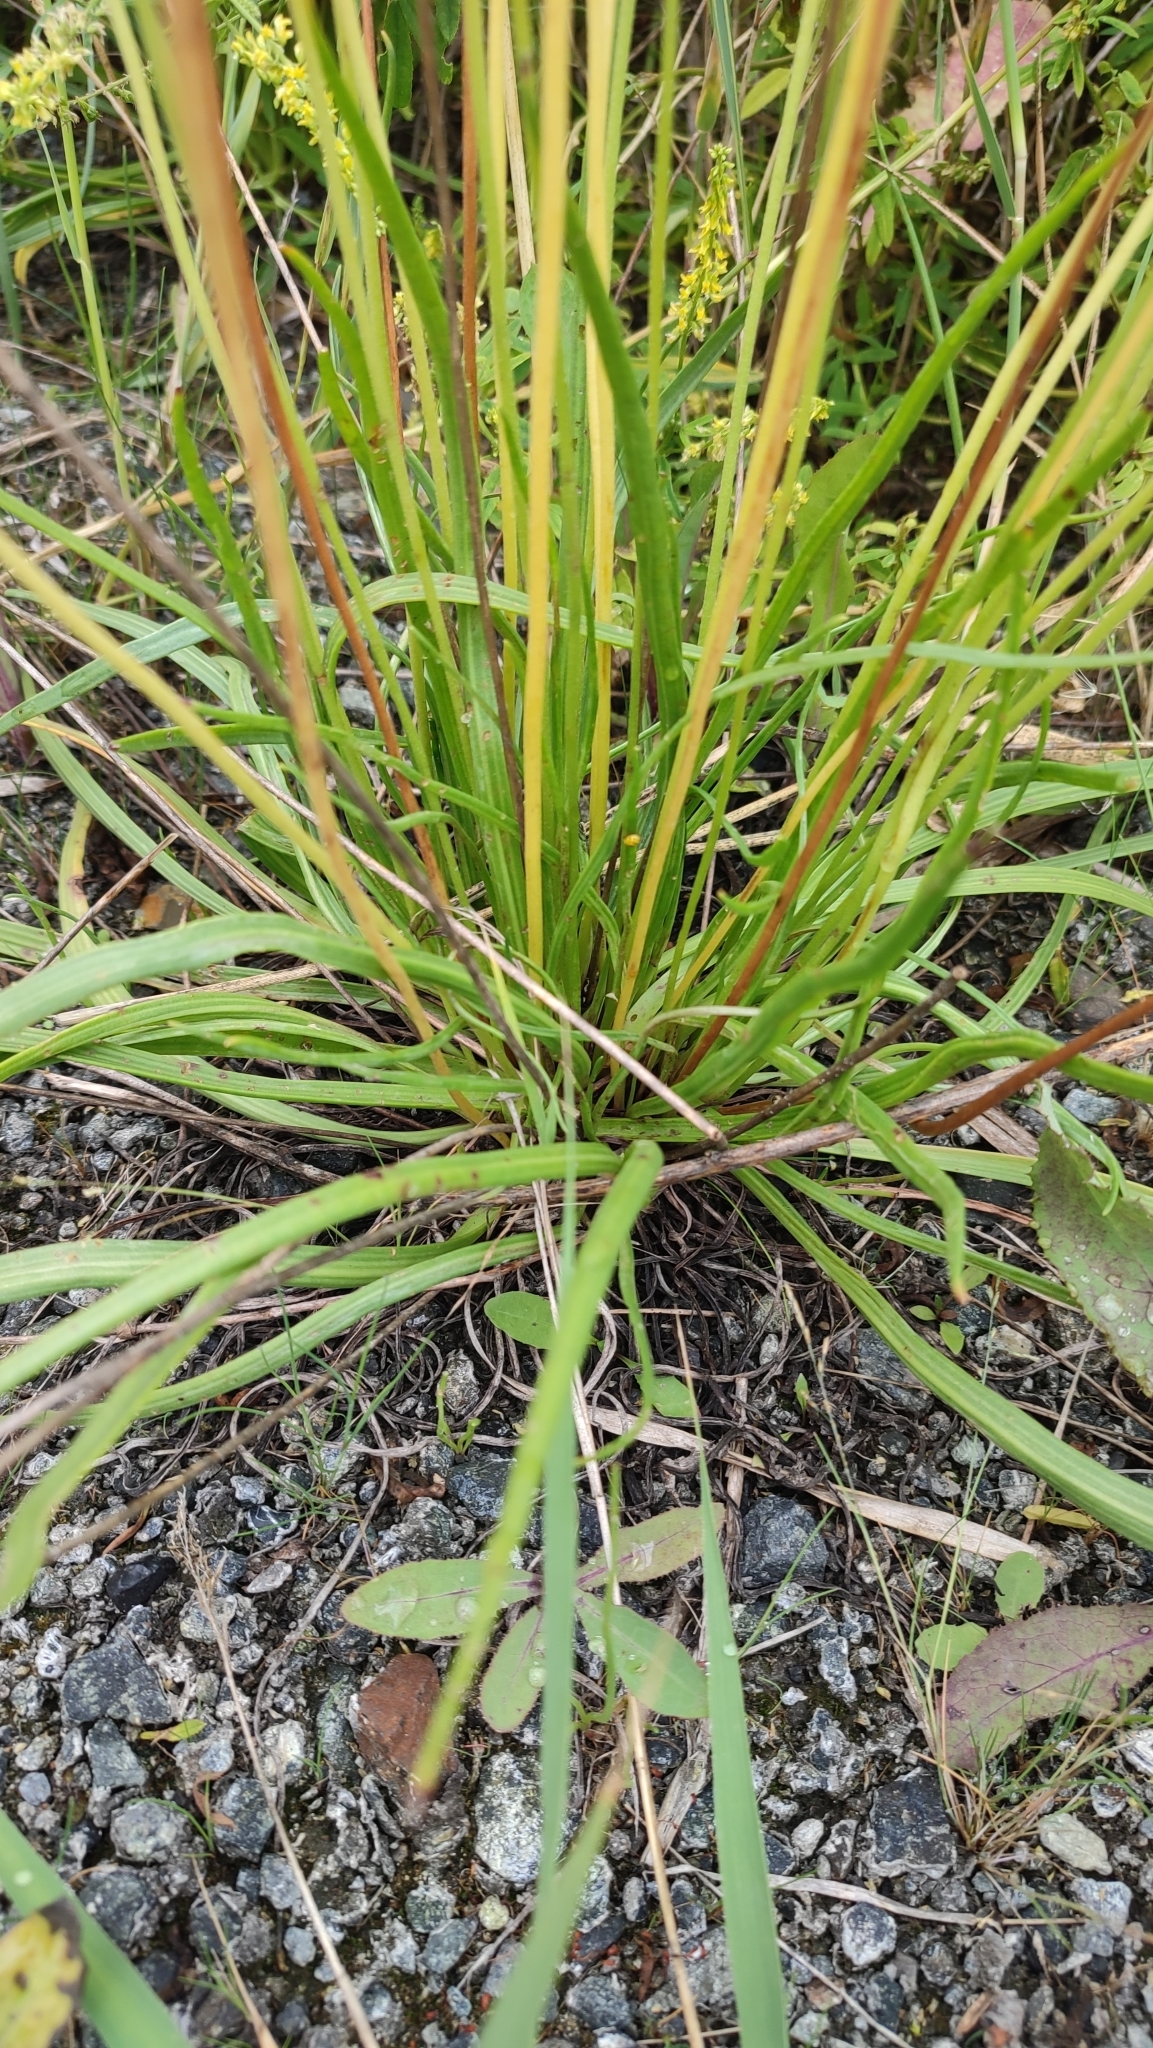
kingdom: Plantae
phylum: Tracheophyta
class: Magnoliopsida
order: Lamiales
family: Plantaginaceae
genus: Plantago
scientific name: Plantago salsa
